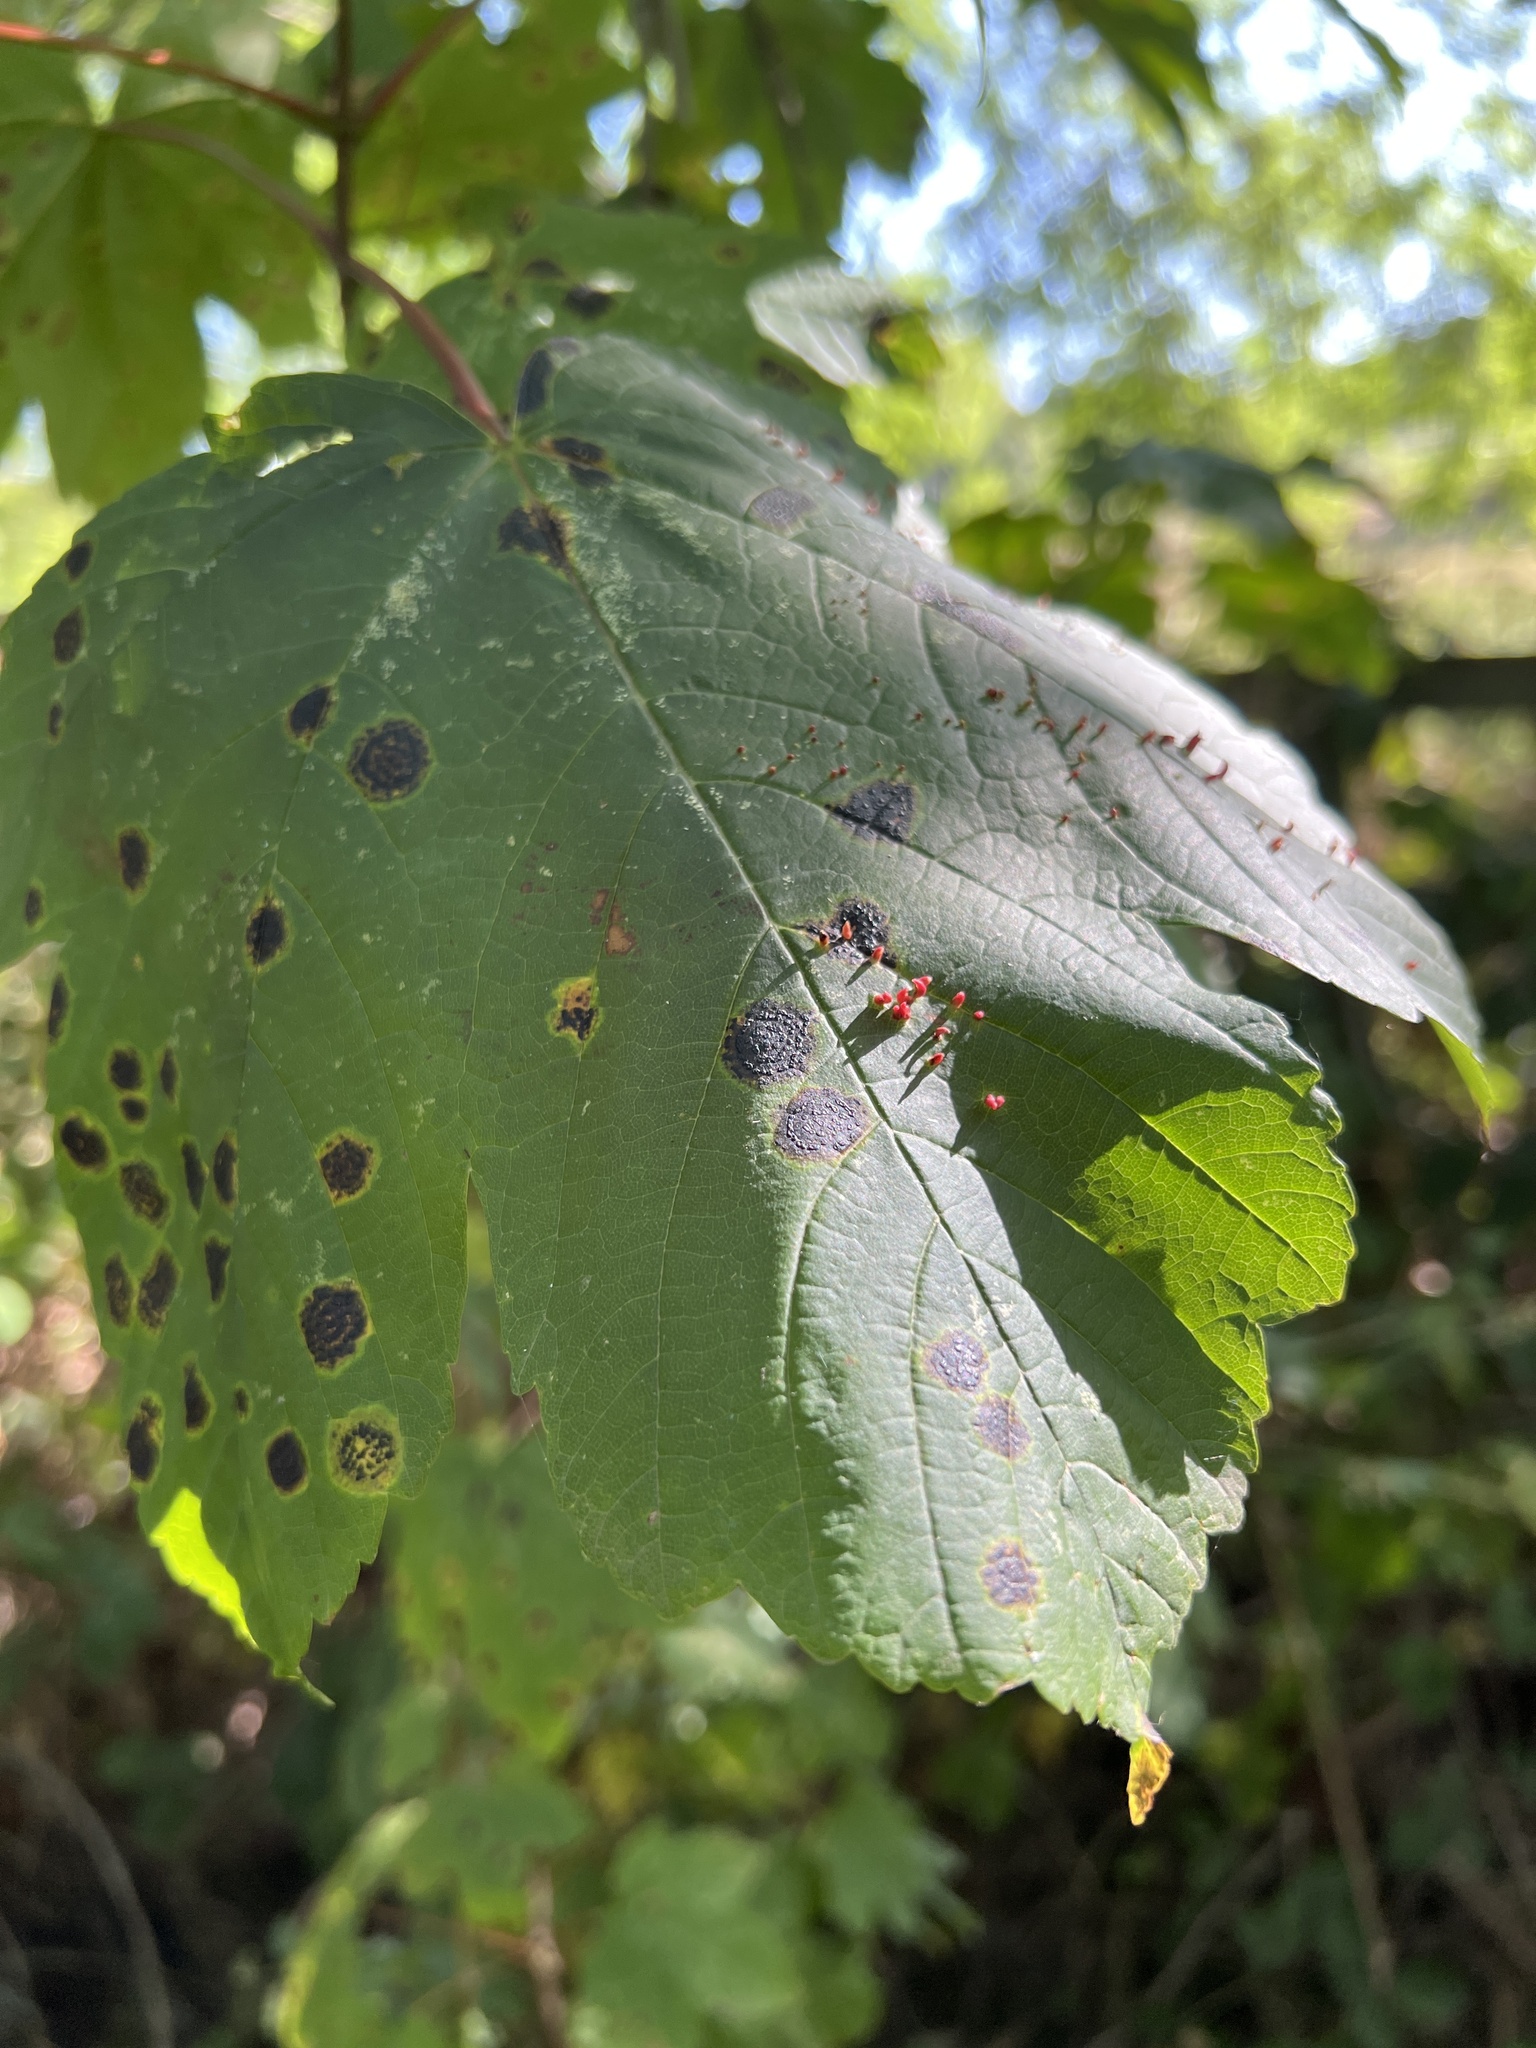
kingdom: Animalia
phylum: Arthropoda
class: Arachnida
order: Trombidiformes
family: Eriophyidae
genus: Aceria
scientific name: Aceria cephaloneus
